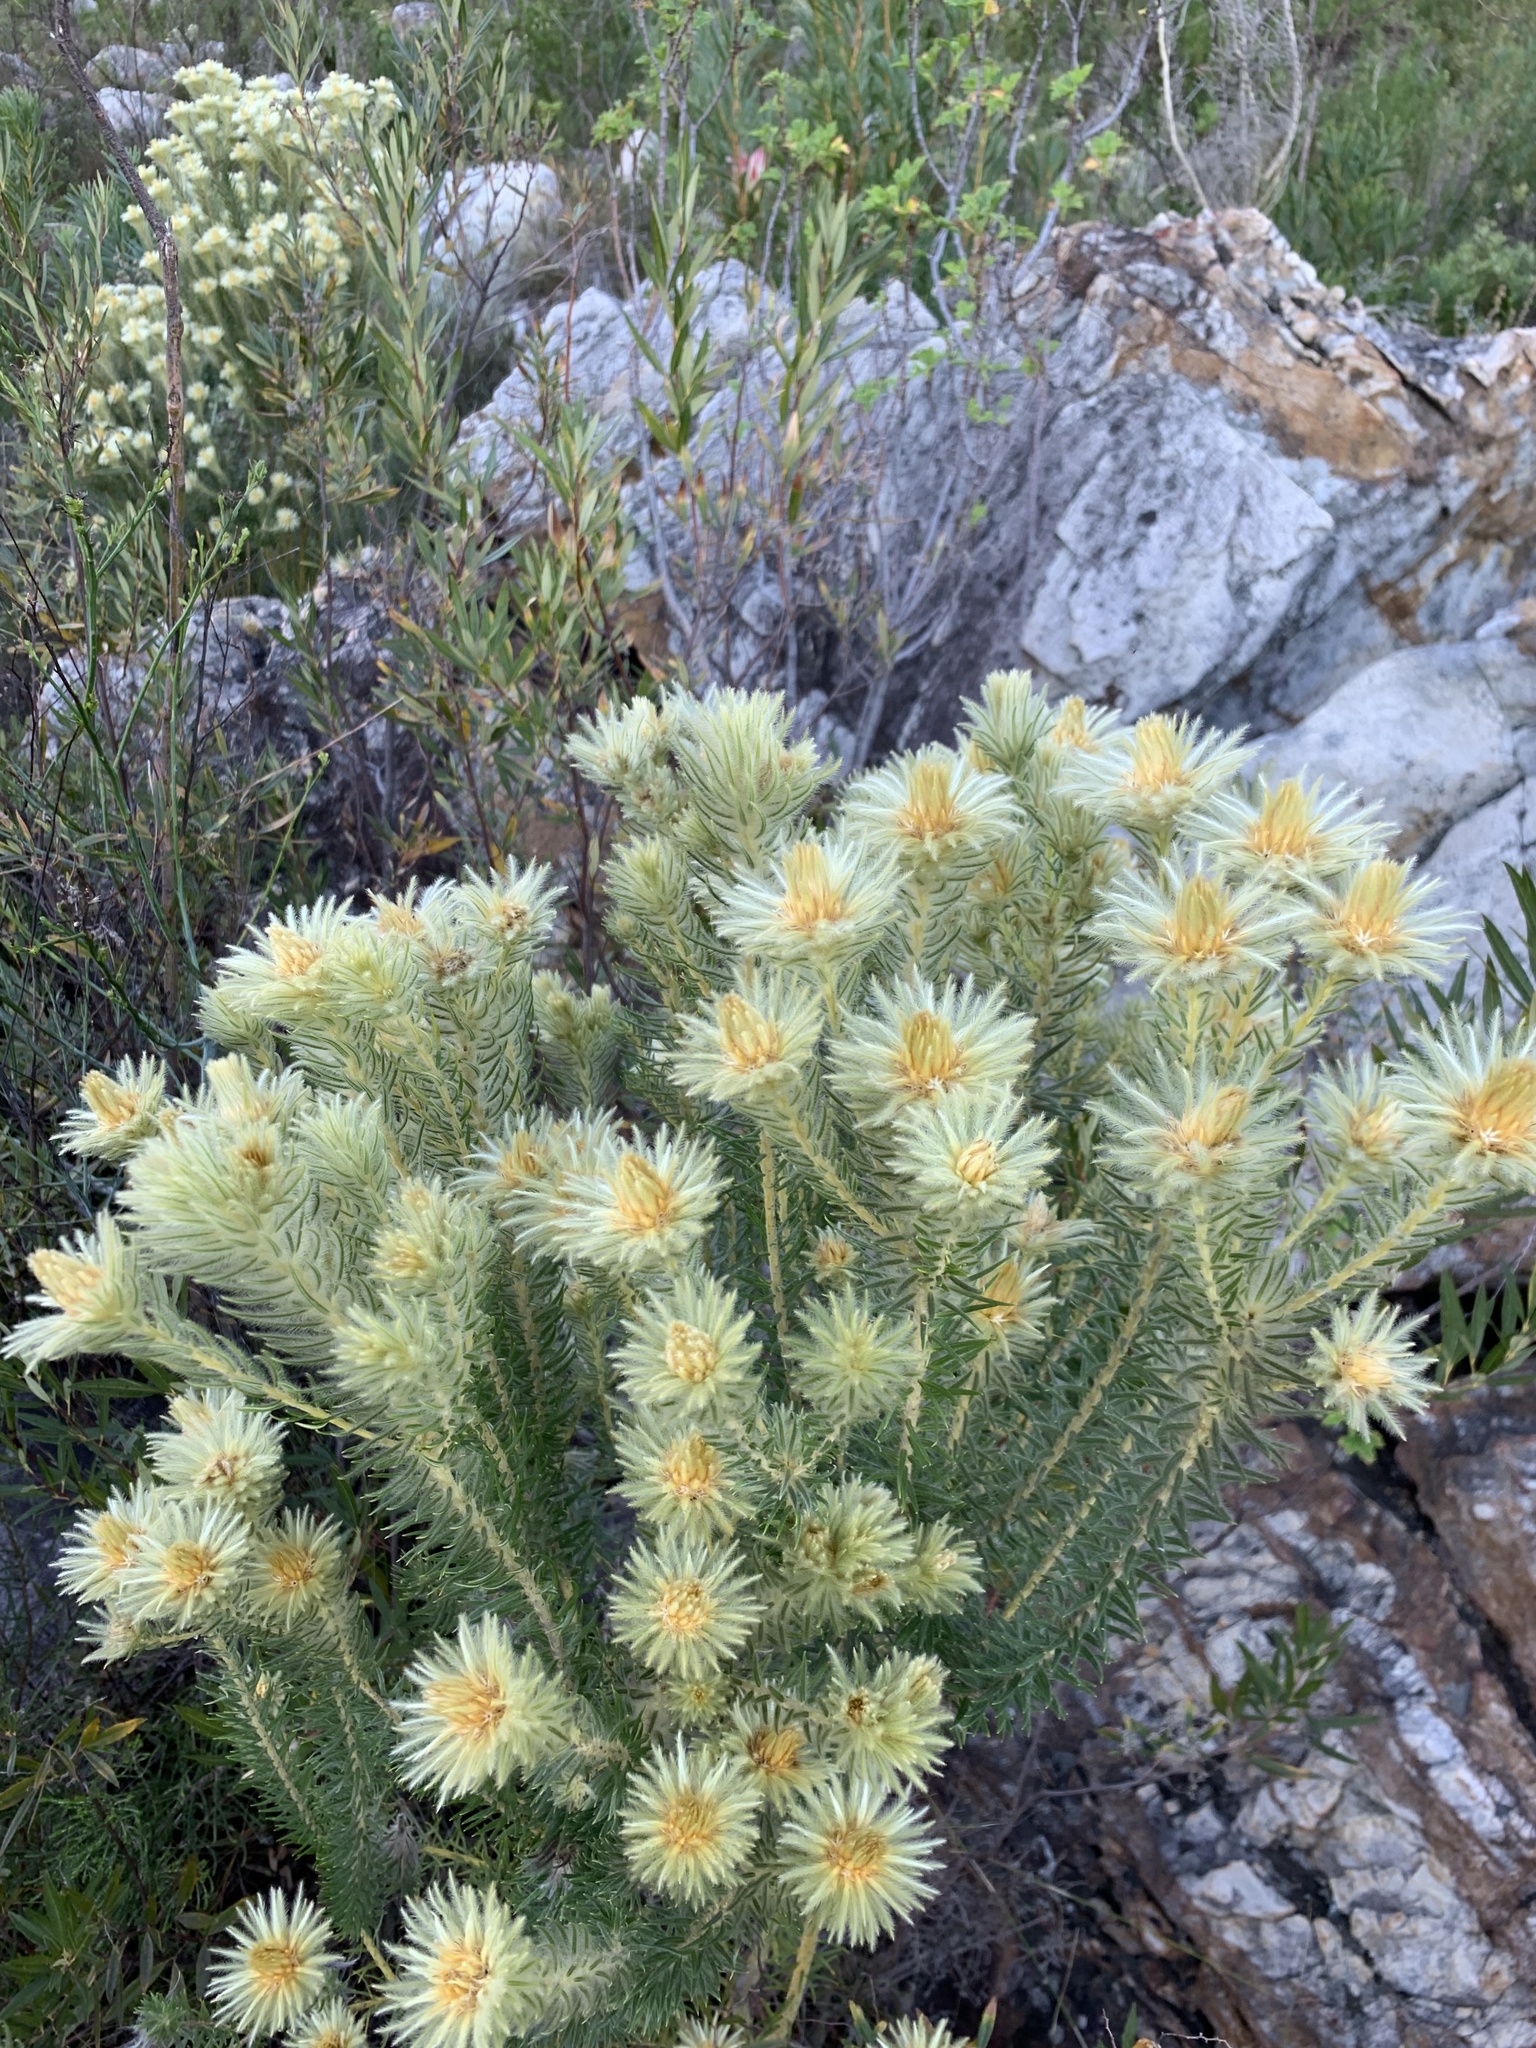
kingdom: Plantae
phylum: Tracheophyta
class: Magnoliopsida
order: Rosales
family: Rhamnaceae
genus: Phylica
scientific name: Phylica pubescens
